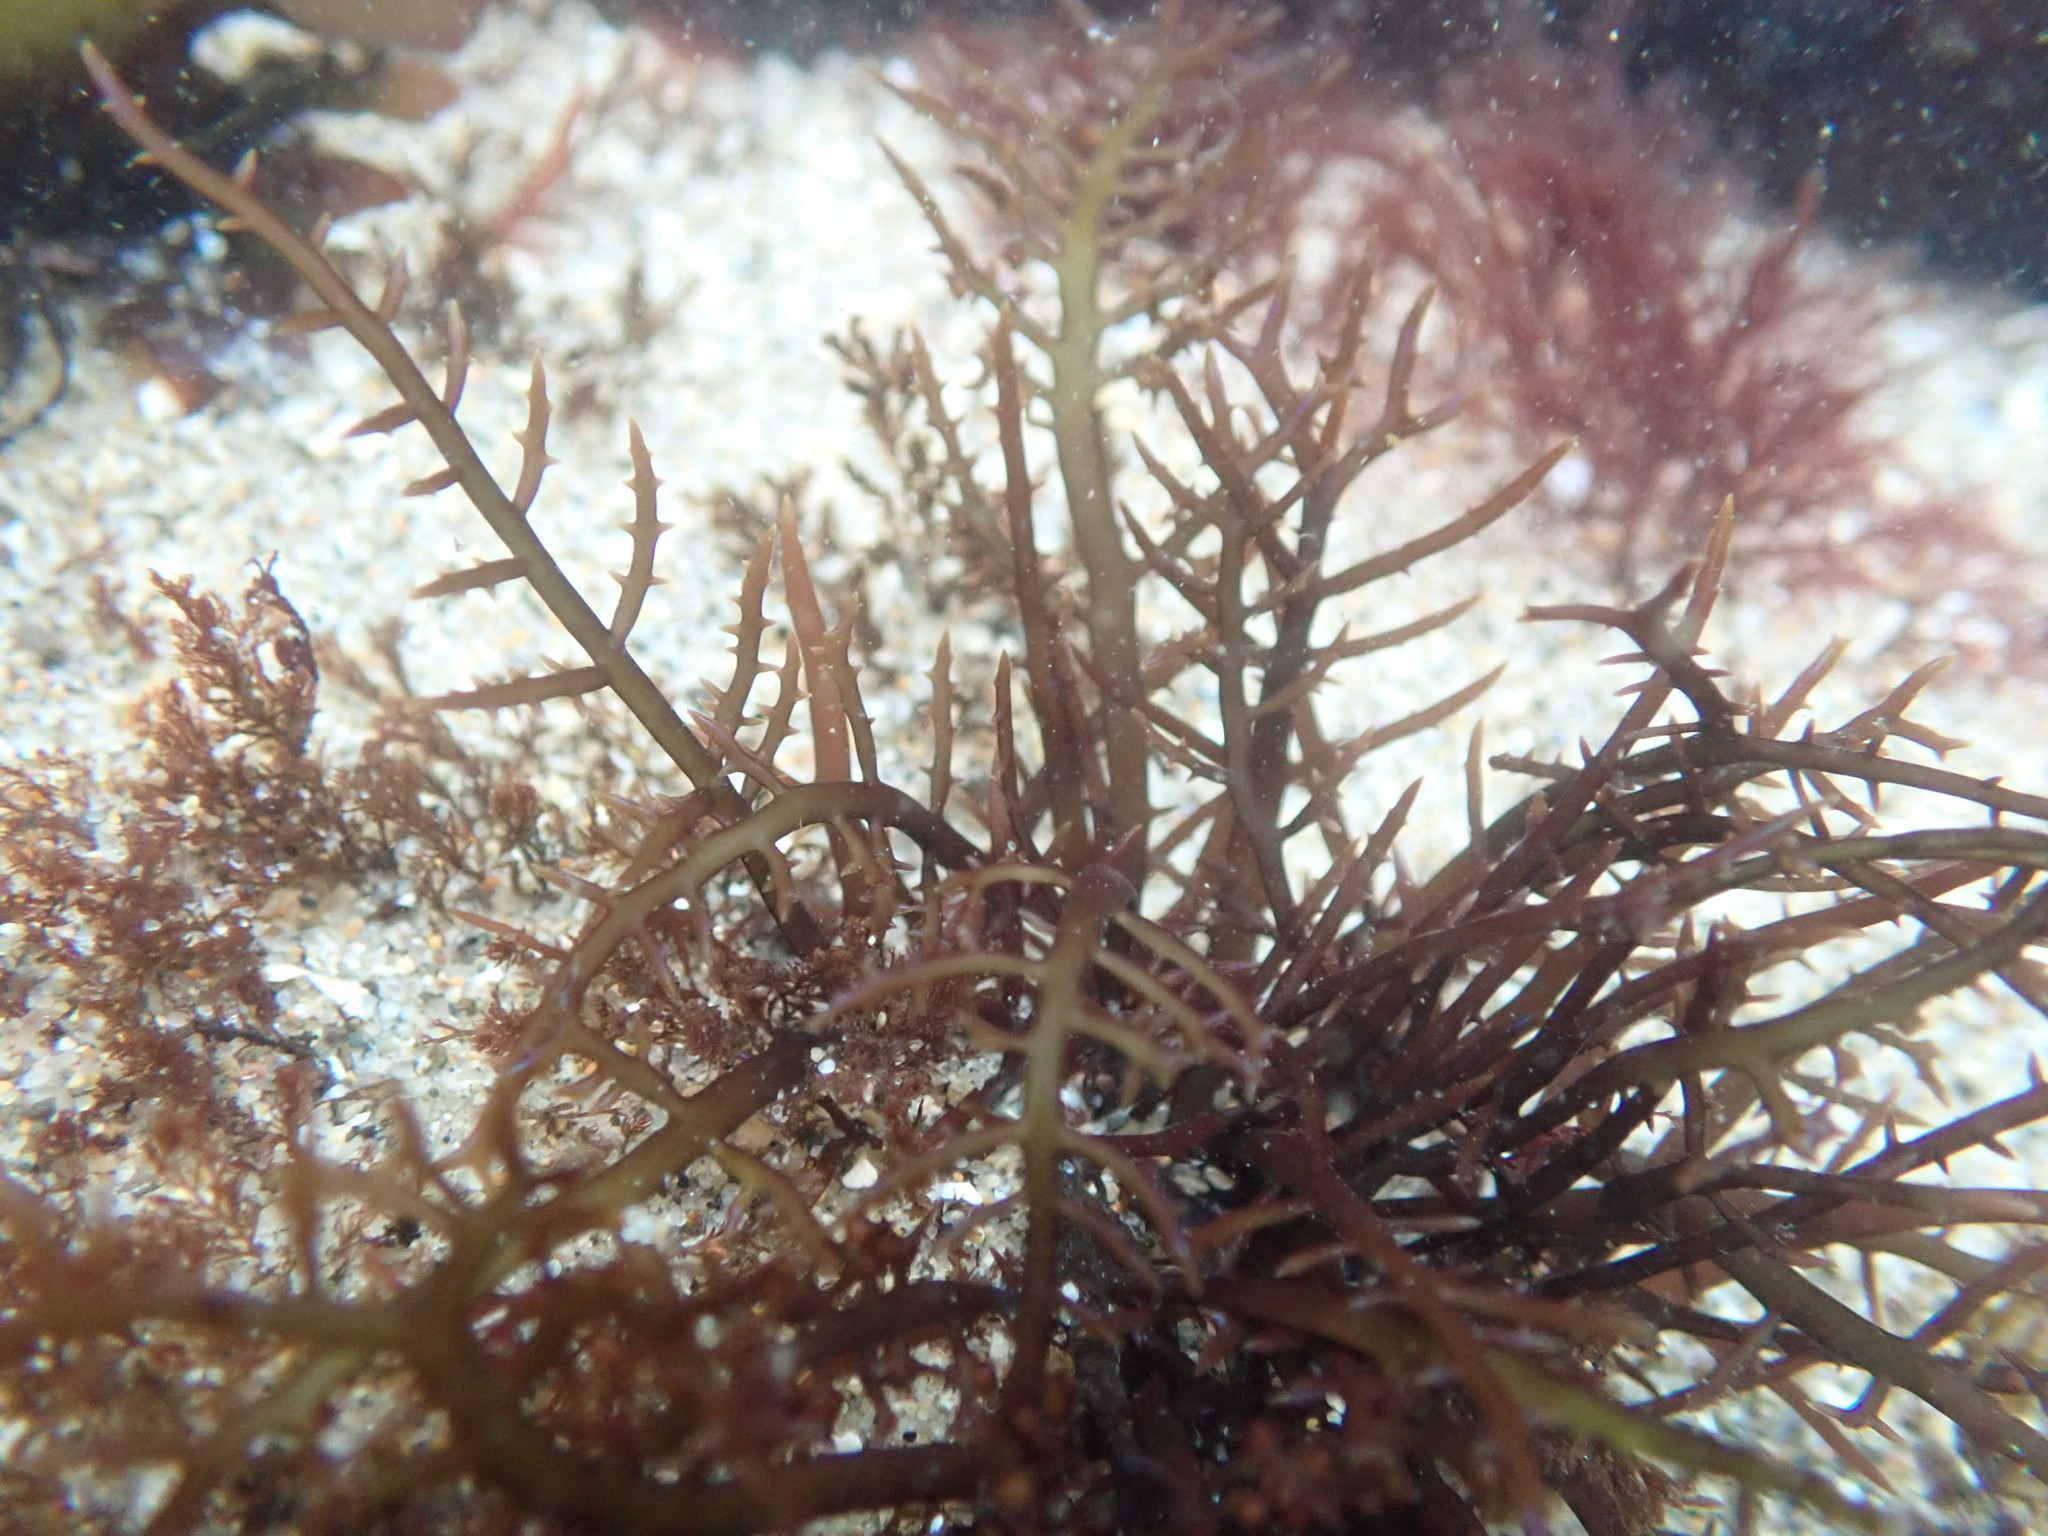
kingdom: Plantae
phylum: Rhodophyta
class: Florideophyceae
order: Gigartinales
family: Gigartinaceae
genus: Chondracanthus
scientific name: Chondracanthus canaliculatus
